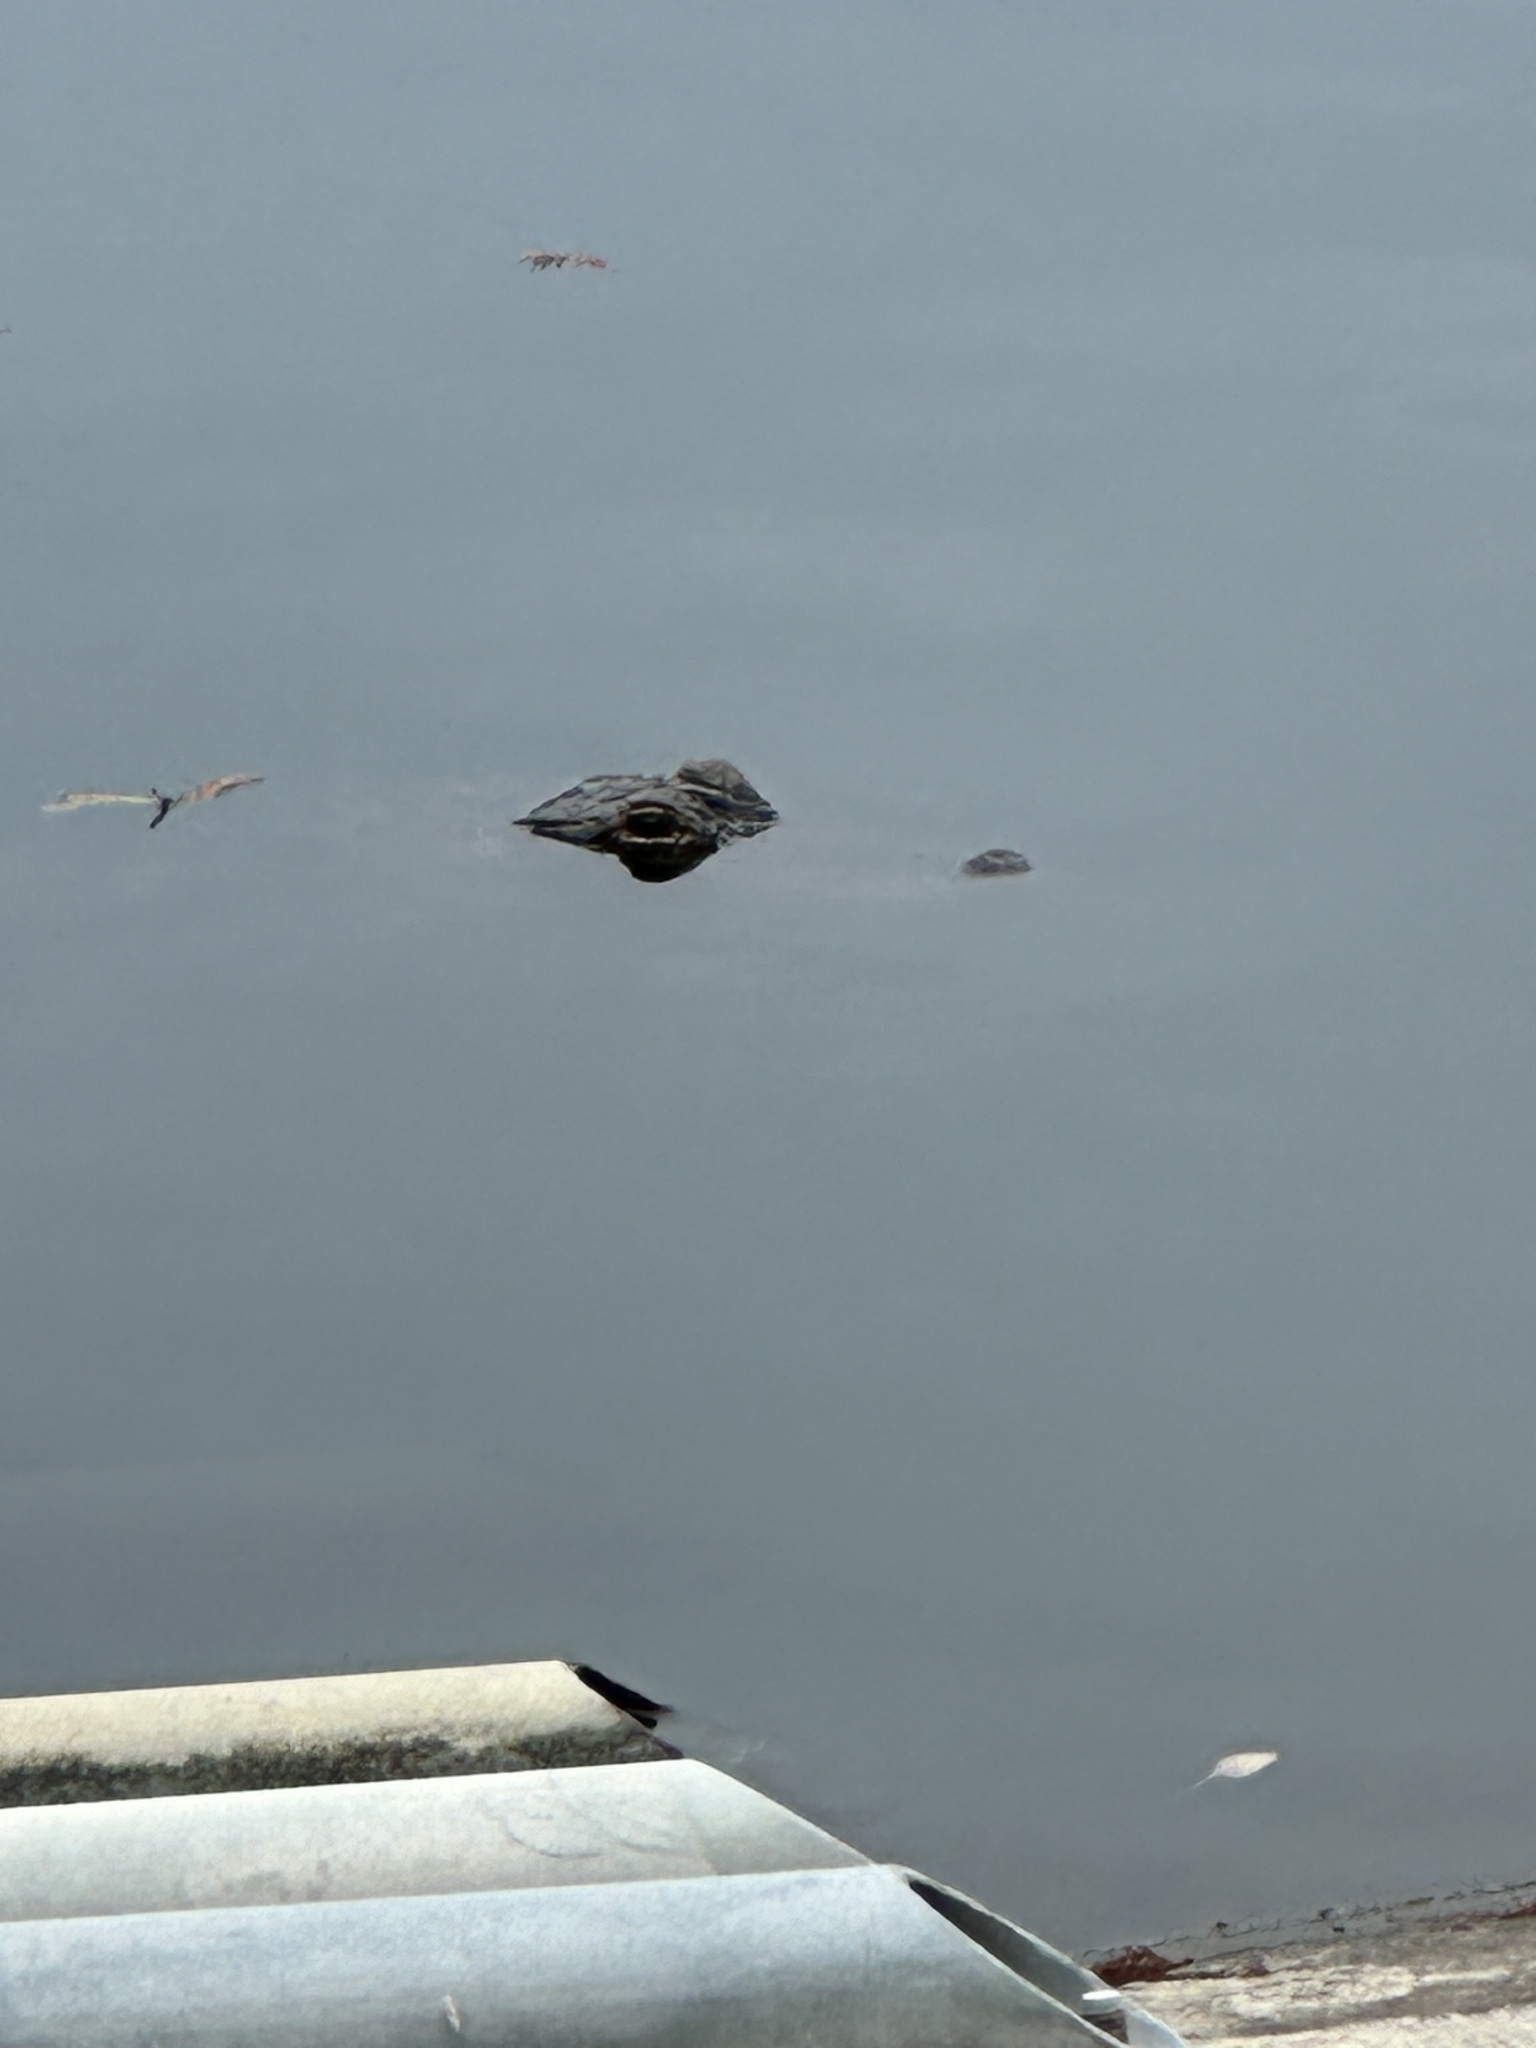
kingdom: Animalia
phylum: Chordata
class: Crocodylia
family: Alligatoridae
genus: Alligator
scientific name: Alligator mississippiensis
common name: American alligator
